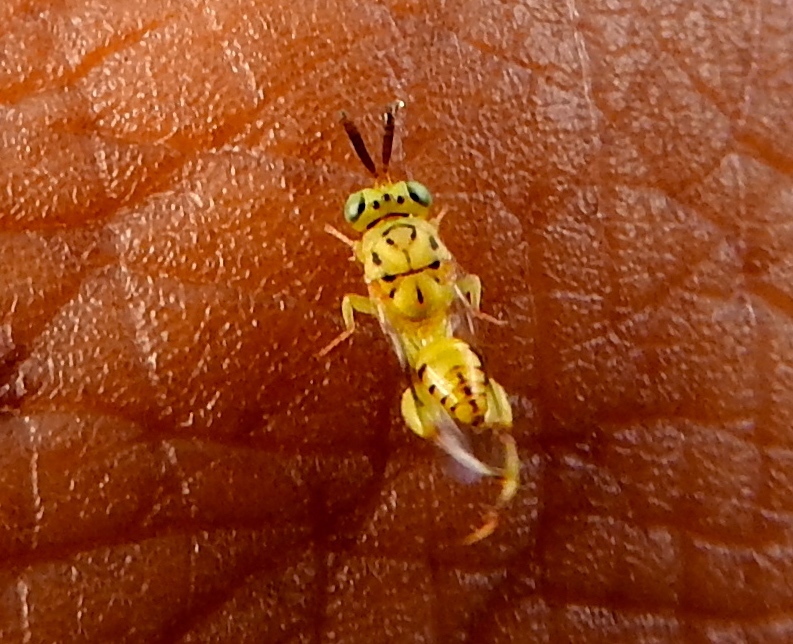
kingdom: Animalia
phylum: Arthropoda
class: Insecta
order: Hymenoptera
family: Chalcididae
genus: Conura
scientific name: Conura
